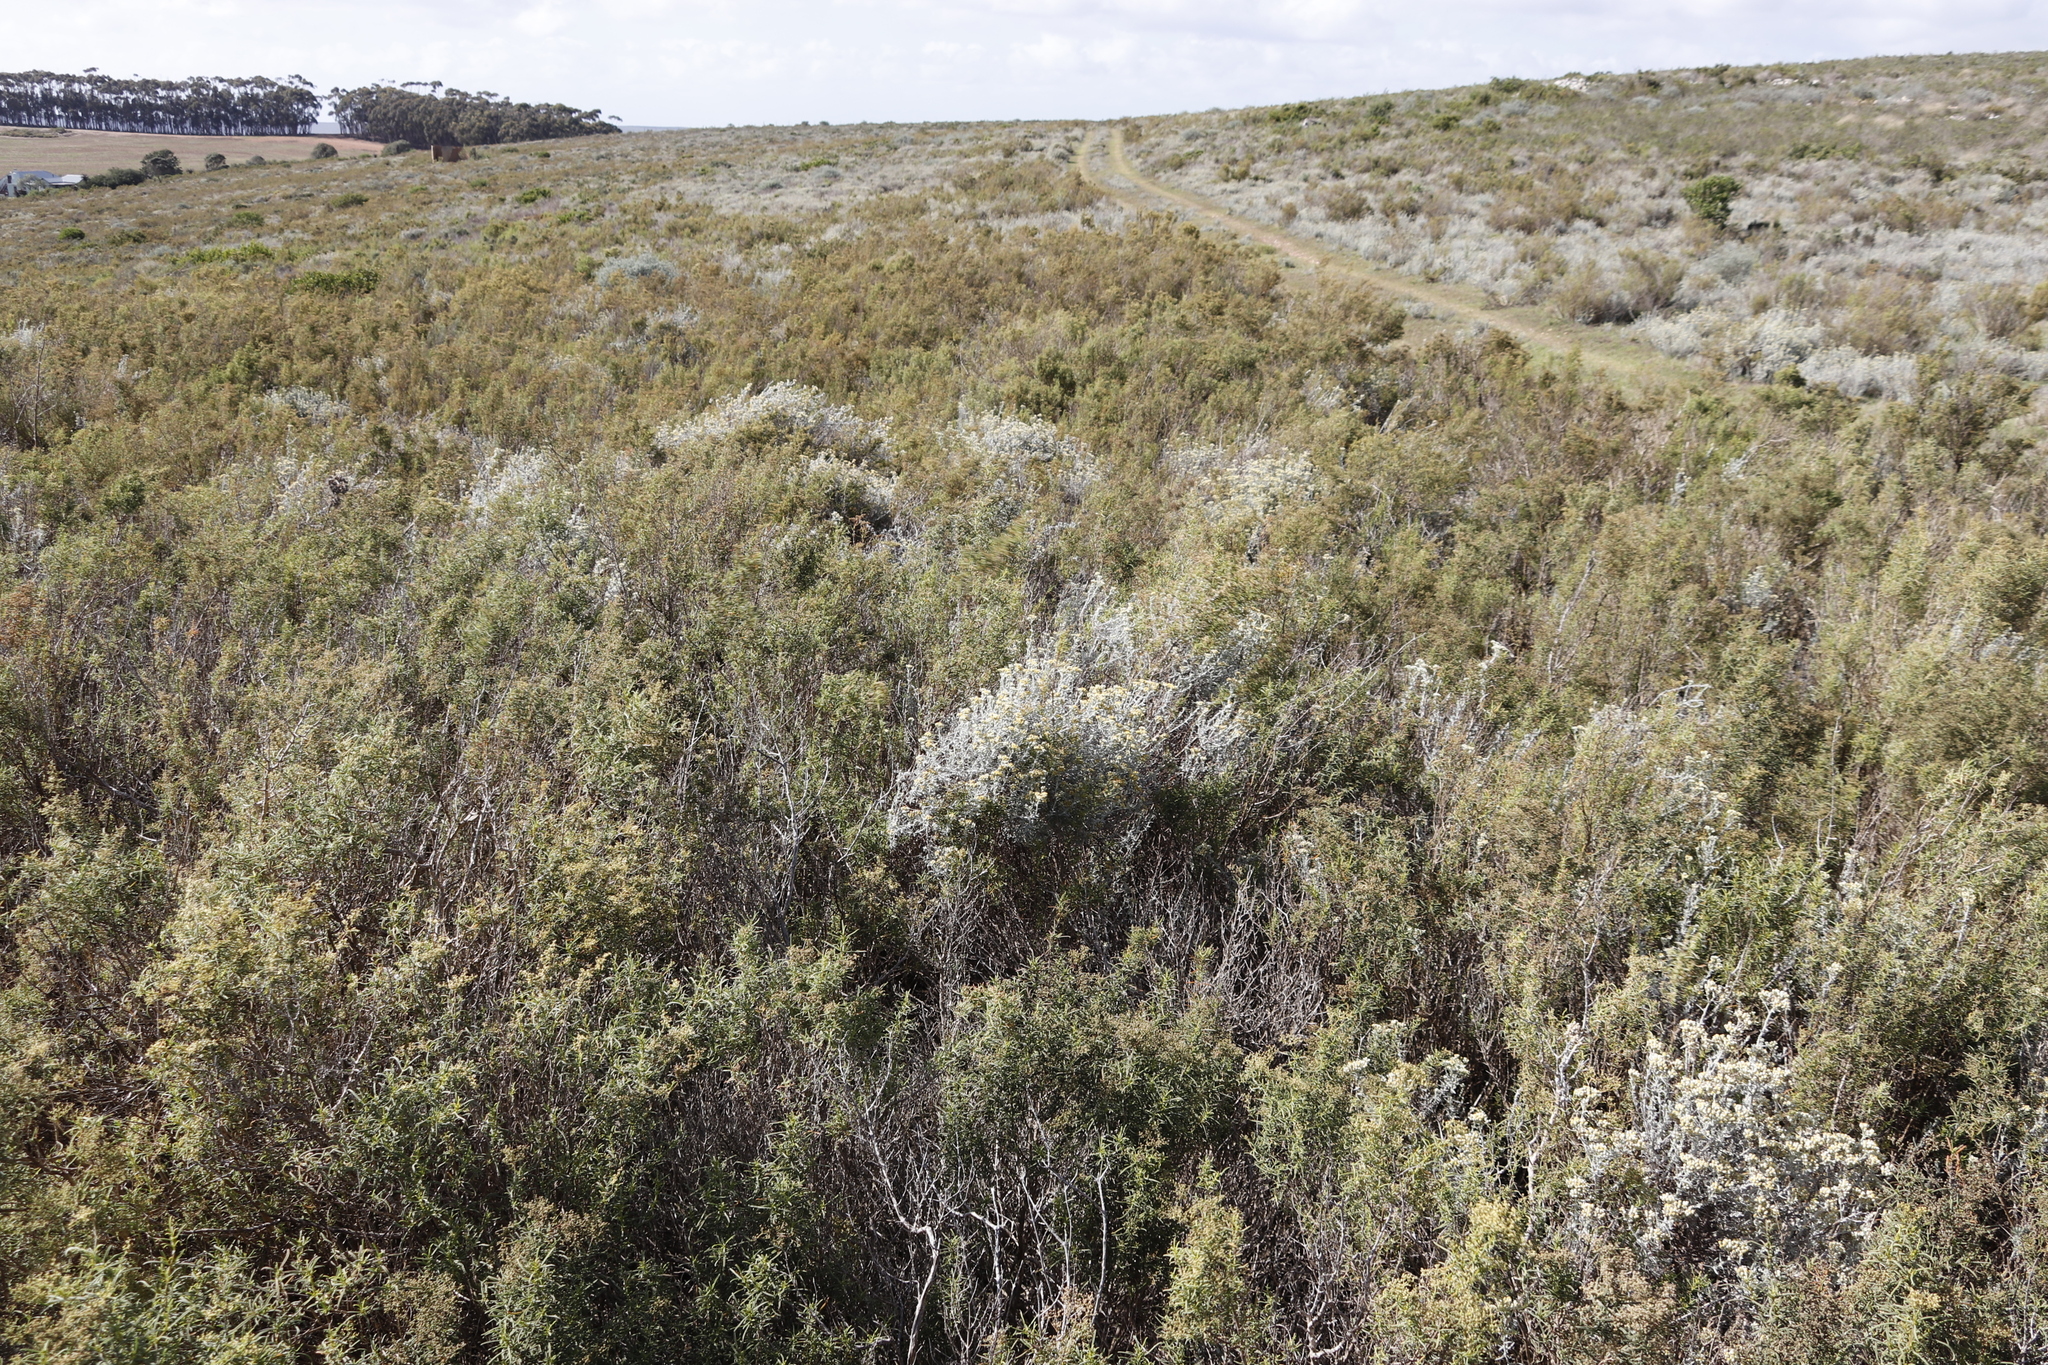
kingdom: Plantae
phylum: Tracheophyta
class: Magnoliopsida
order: Asterales
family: Asteraceae
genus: Helichrysum
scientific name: Helichrysum rosum
